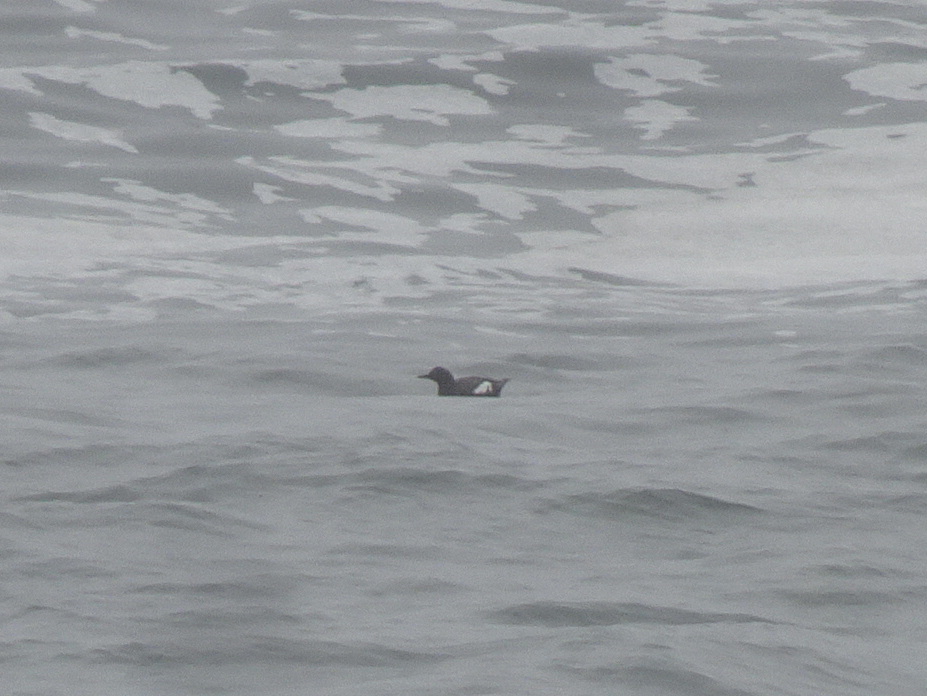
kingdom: Animalia
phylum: Chordata
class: Aves
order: Charadriiformes
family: Alcidae
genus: Cepphus
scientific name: Cepphus columba
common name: Pigeon guillemot
